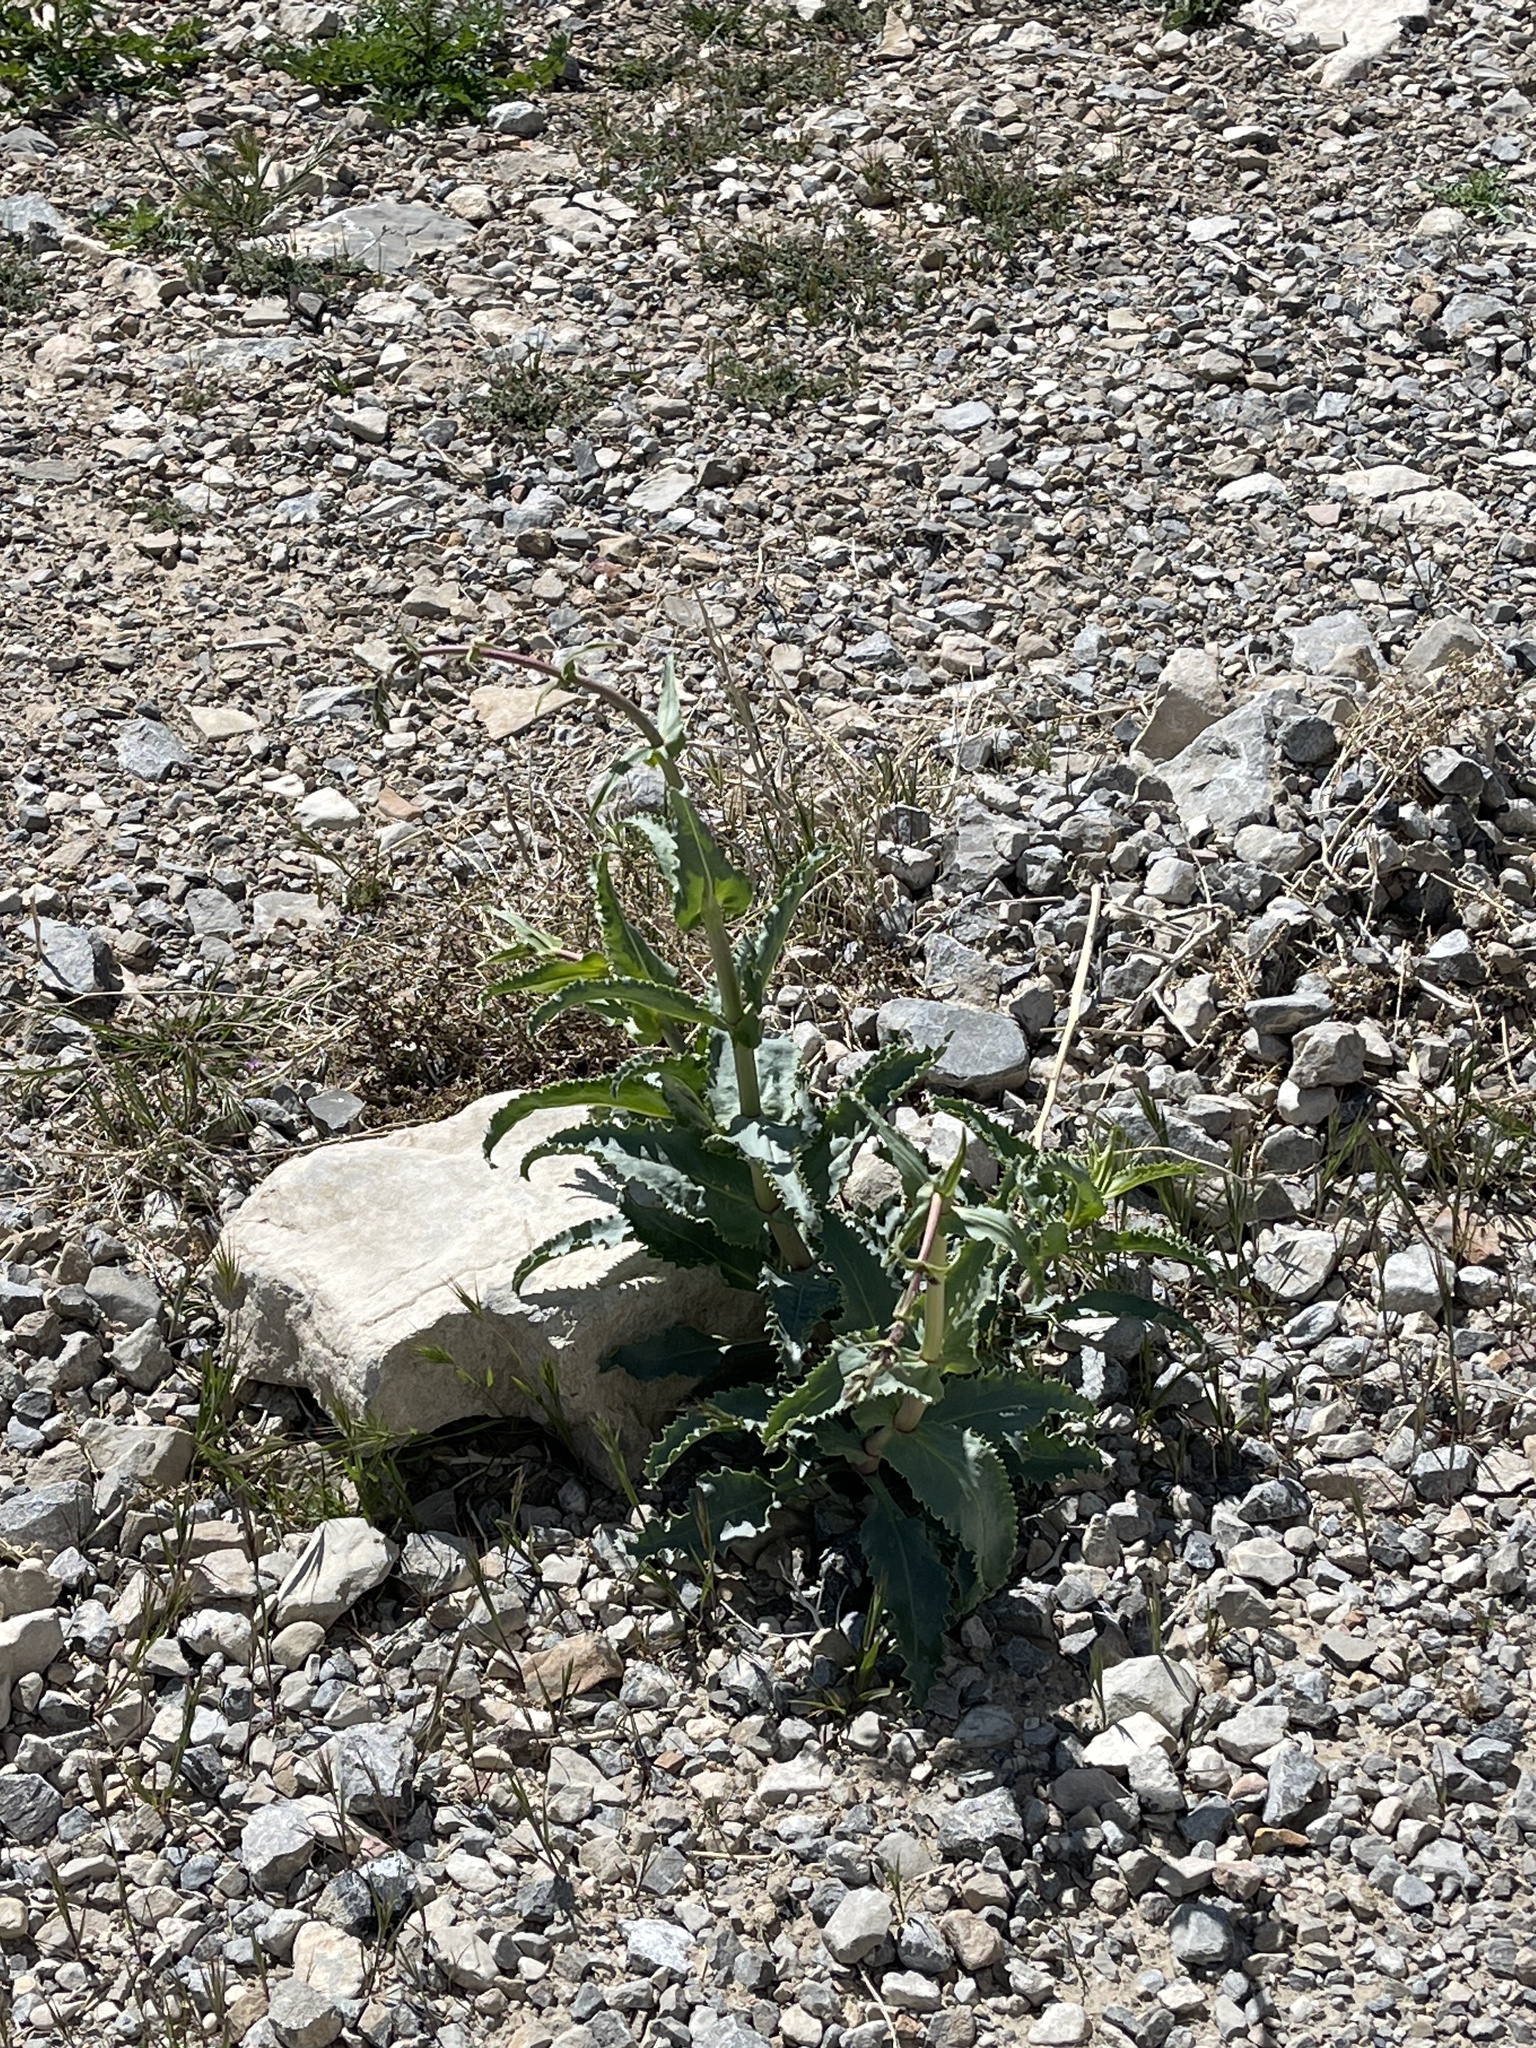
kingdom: Plantae
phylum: Tracheophyta
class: Magnoliopsida
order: Lamiales
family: Plantaginaceae
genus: Penstemon
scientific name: Penstemon palmeri
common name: Palmer penstemon
